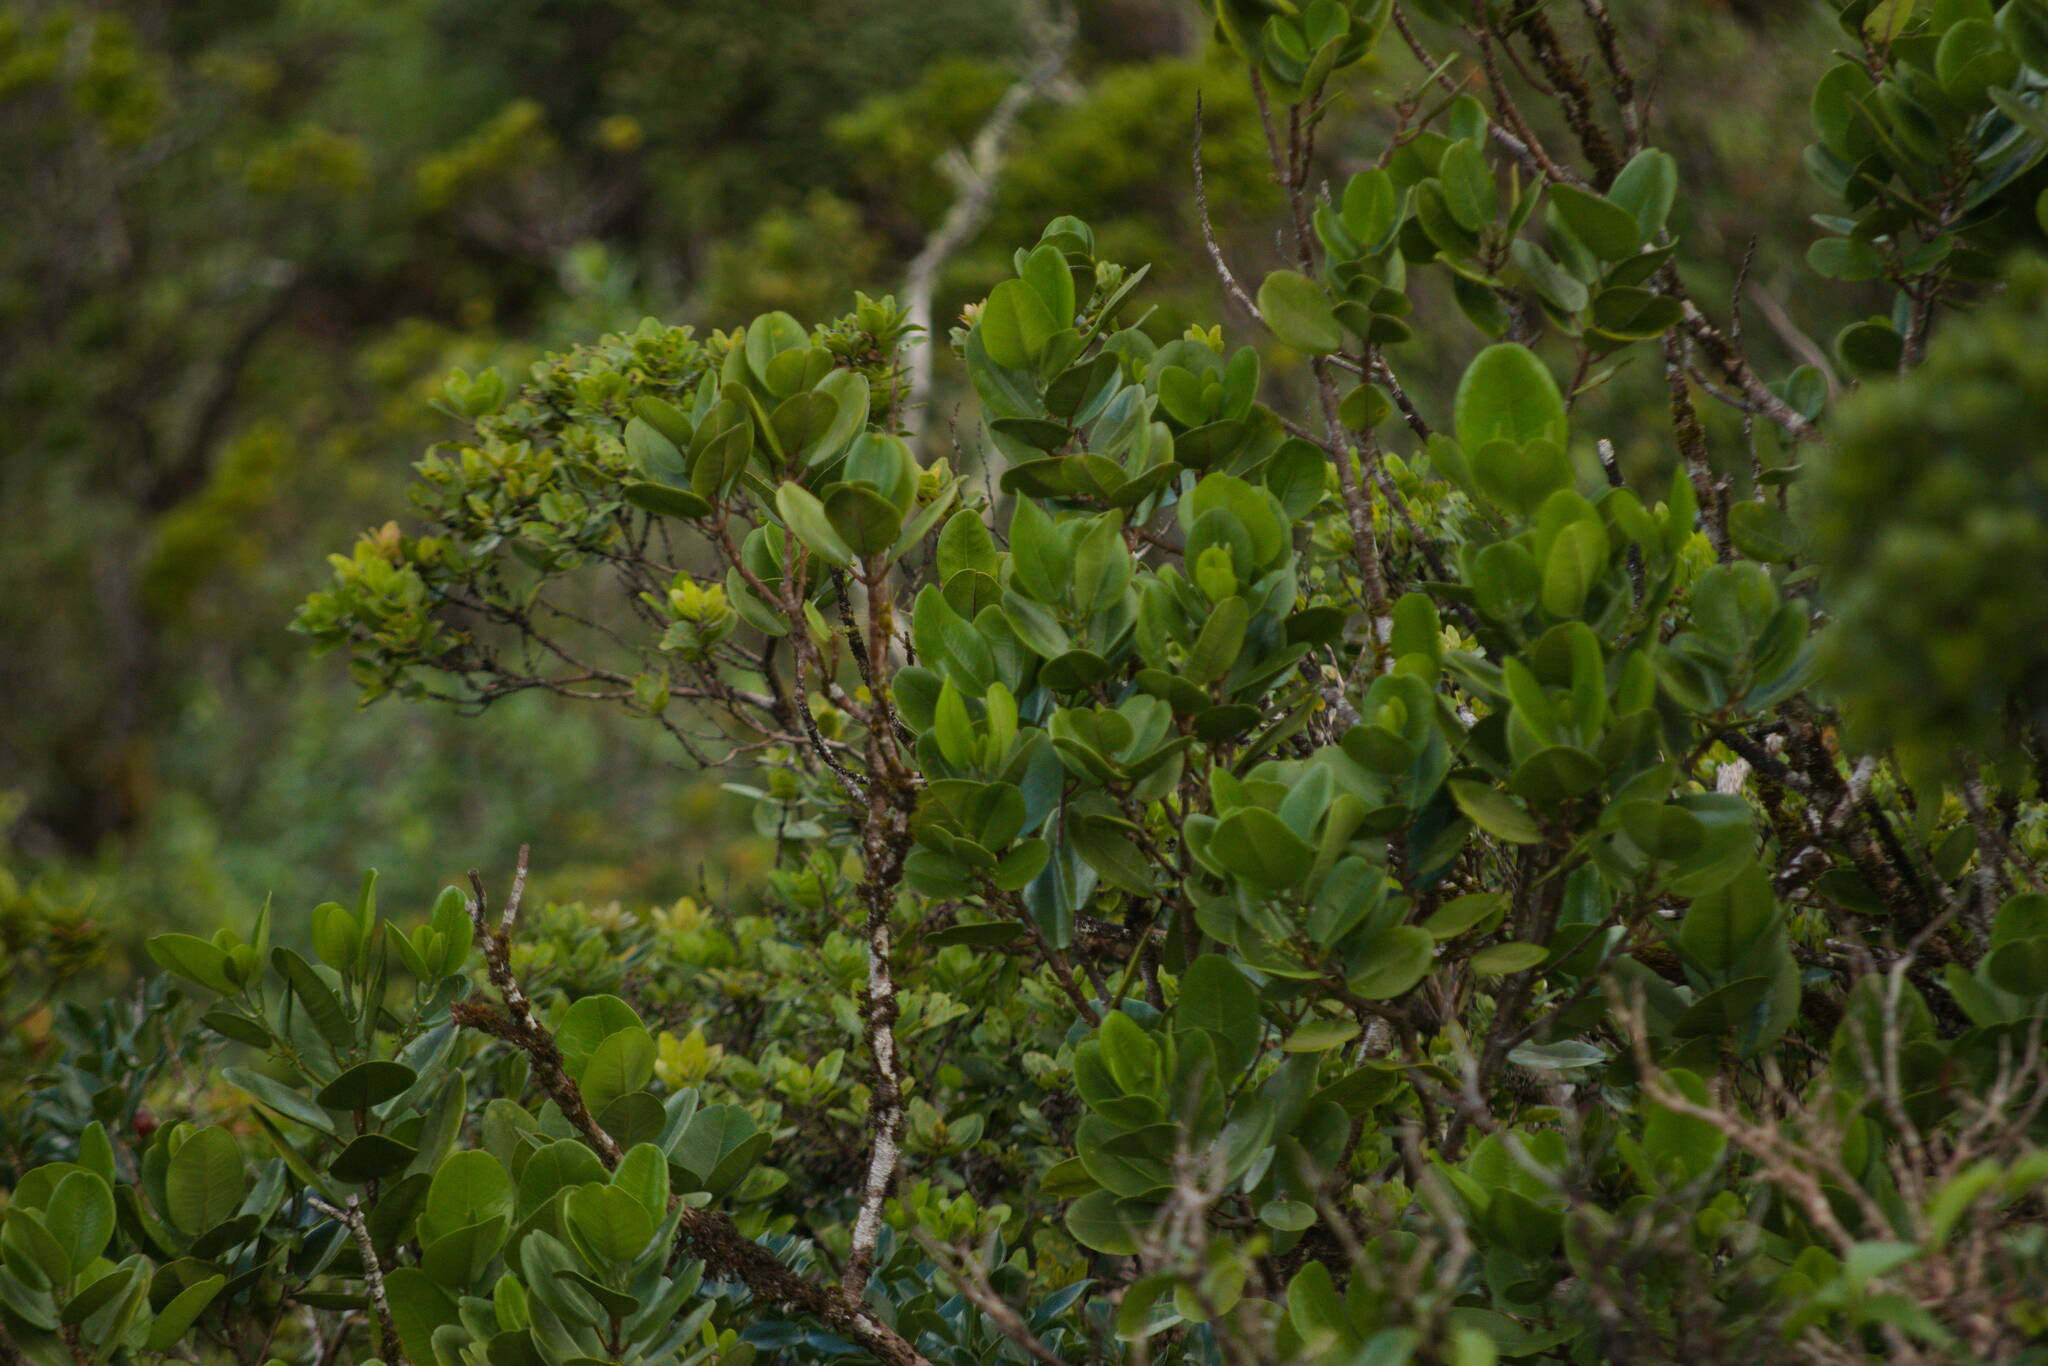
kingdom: Plantae
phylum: Tracheophyta
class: Magnoliopsida
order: Sapindales
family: Rutaceae
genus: Melicope
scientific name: Melicope oahuensis
